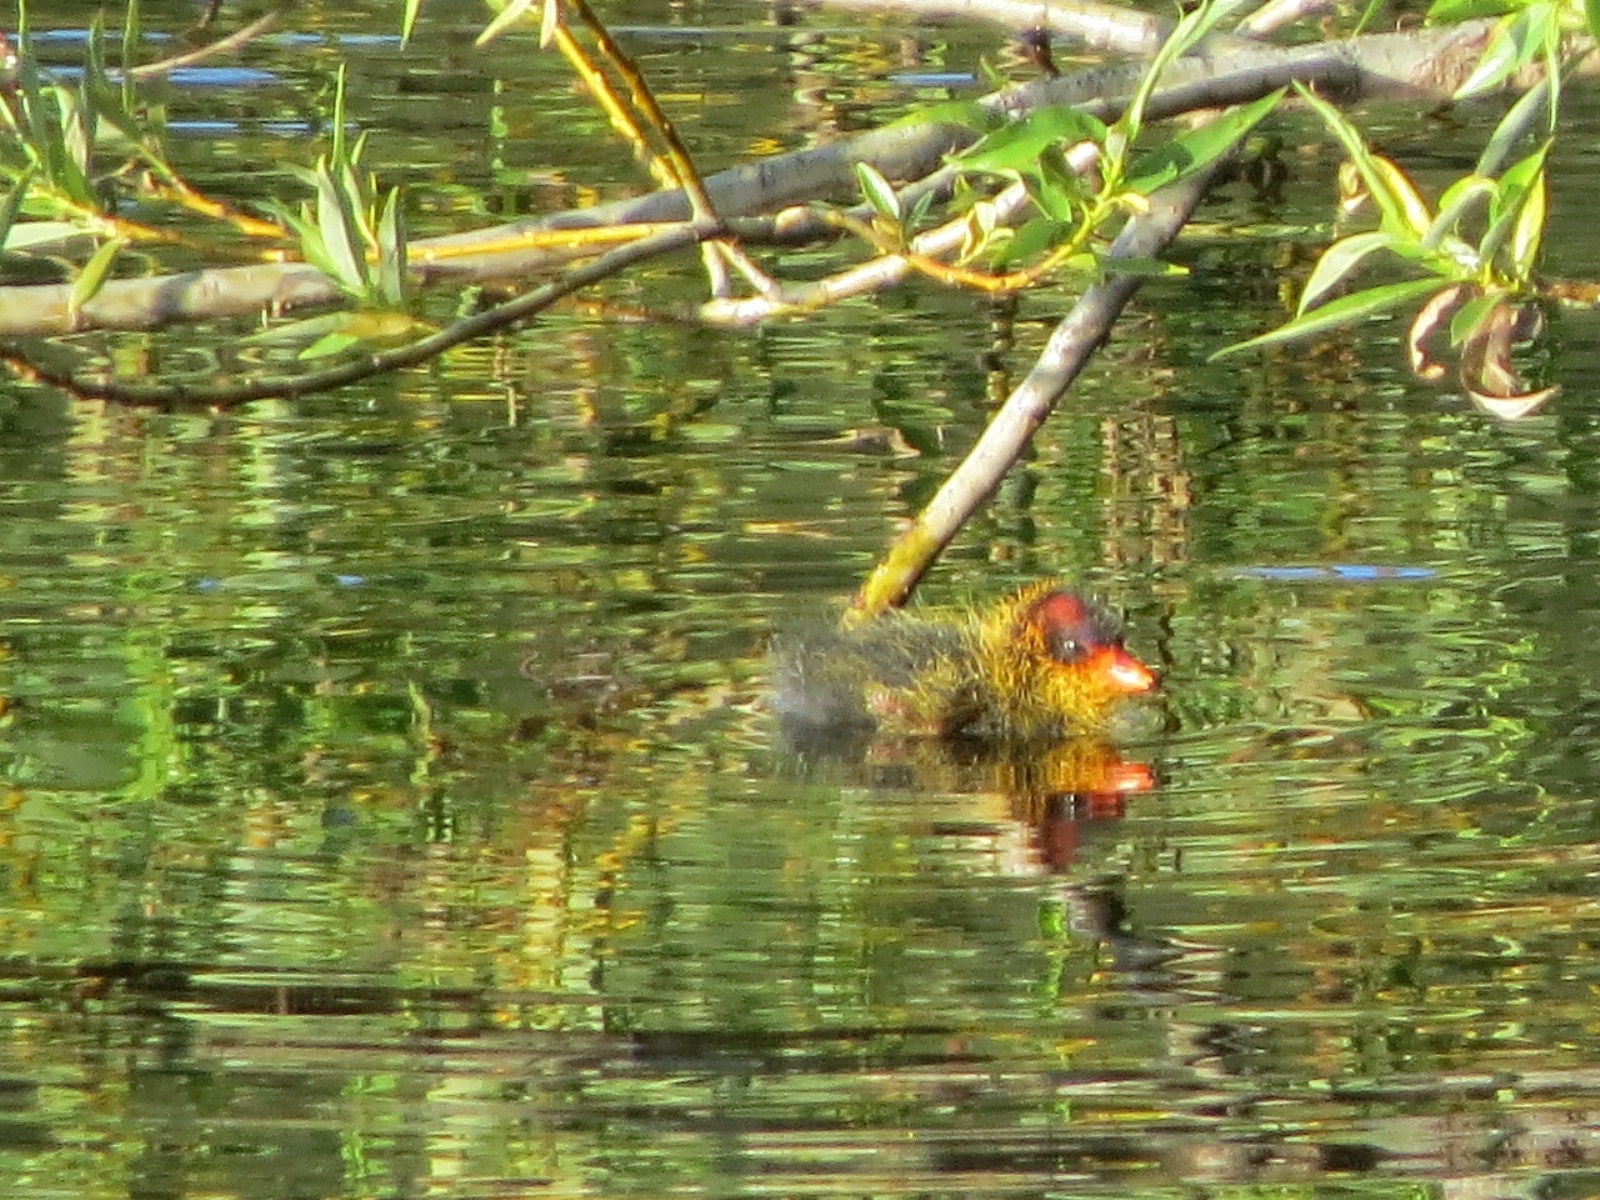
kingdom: Animalia
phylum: Chordata
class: Aves
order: Gruiformes
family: Rallidae
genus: Fulica
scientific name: Fulica americana
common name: American coot
